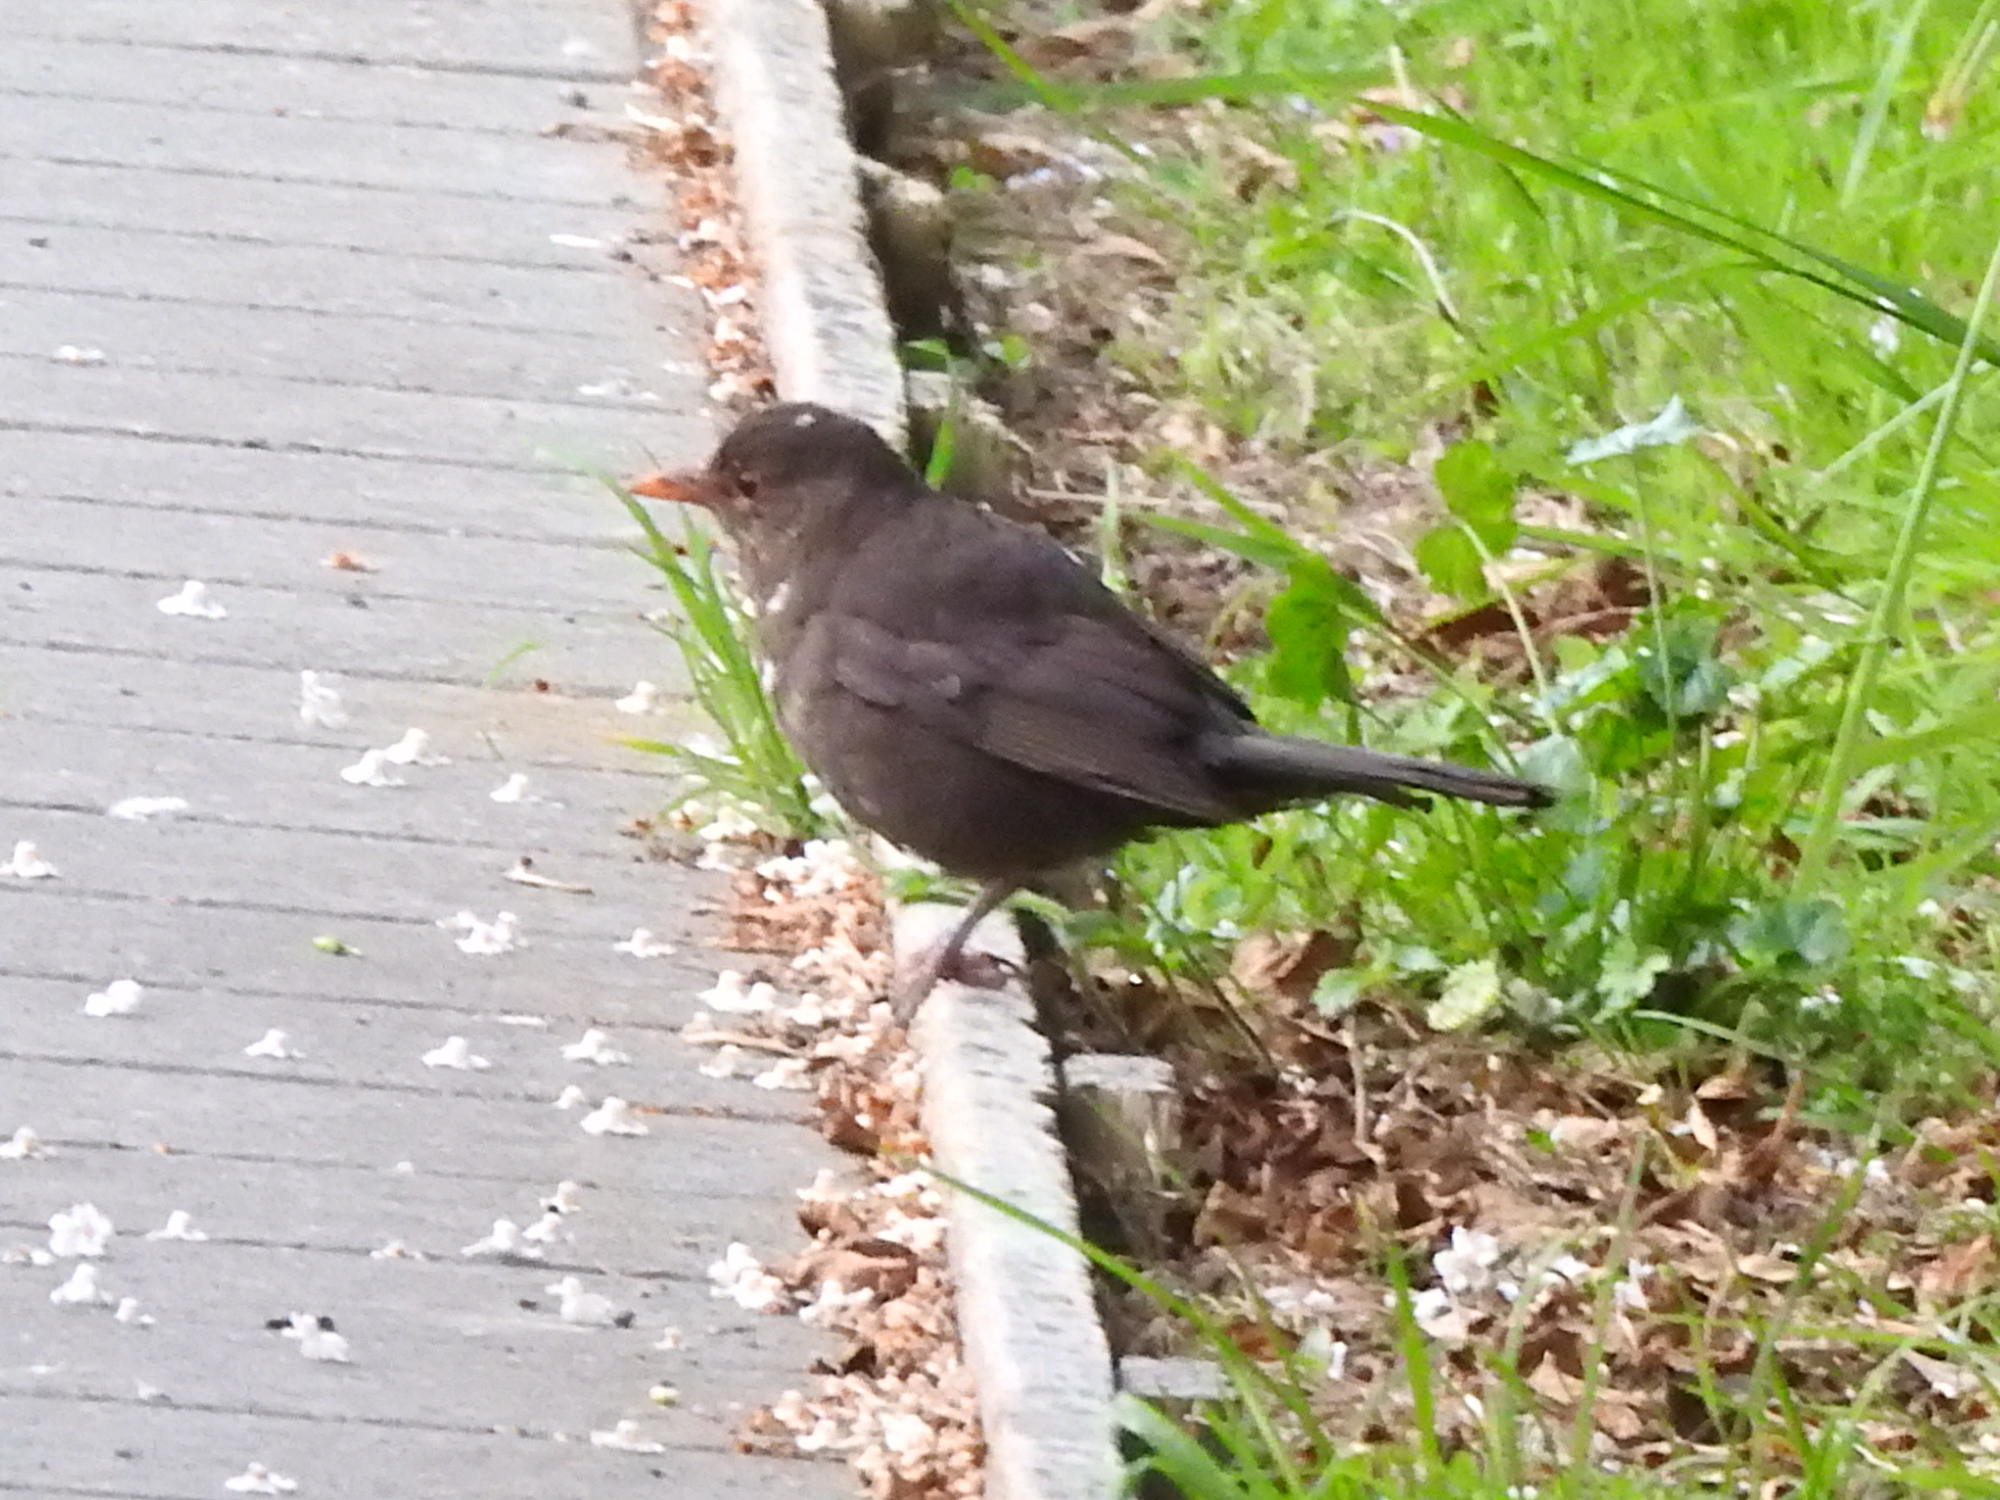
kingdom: Animalia
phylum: Chordata
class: Aves
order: Passeriformes
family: Turdidae
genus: Turdus
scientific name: Turdus merula
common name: Common blackbird
